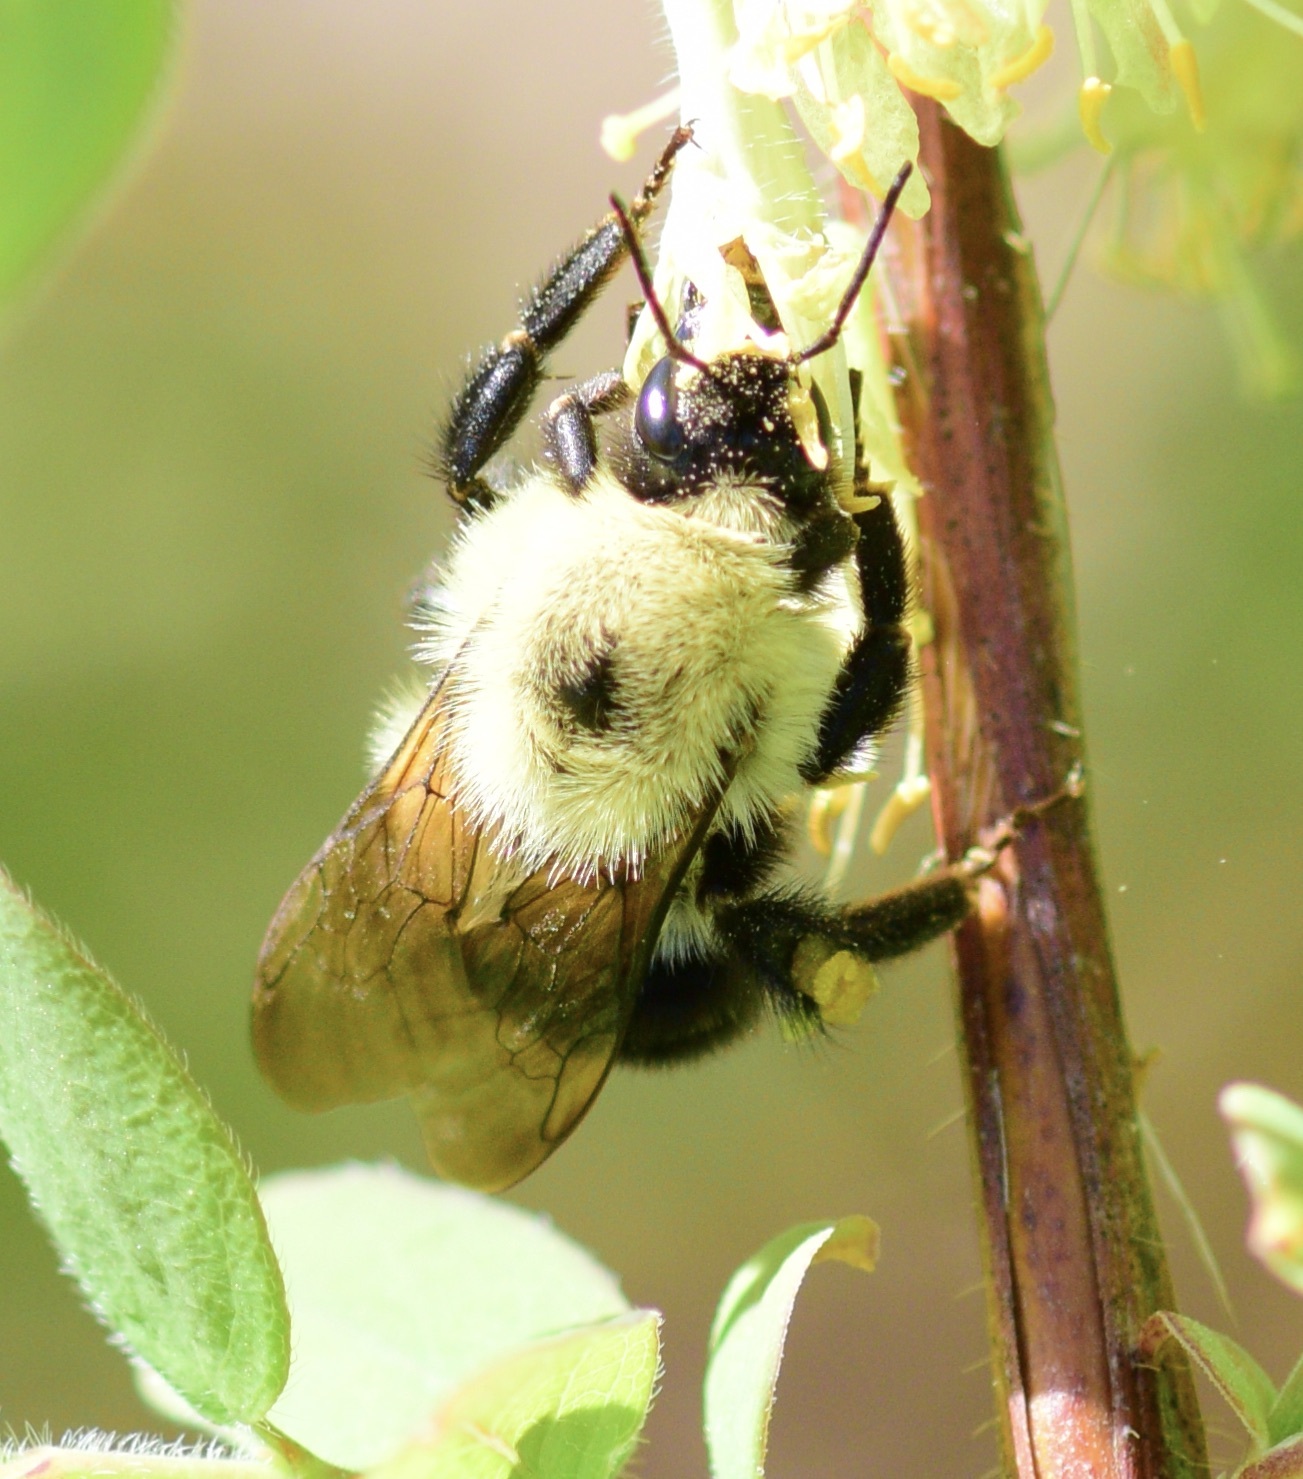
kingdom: Animalia
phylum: Arthropoda
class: Insecta
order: Hymenoptera
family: Apidae
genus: Bombus
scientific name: Bombus bimaculatus
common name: Two-spotted bumble bee
